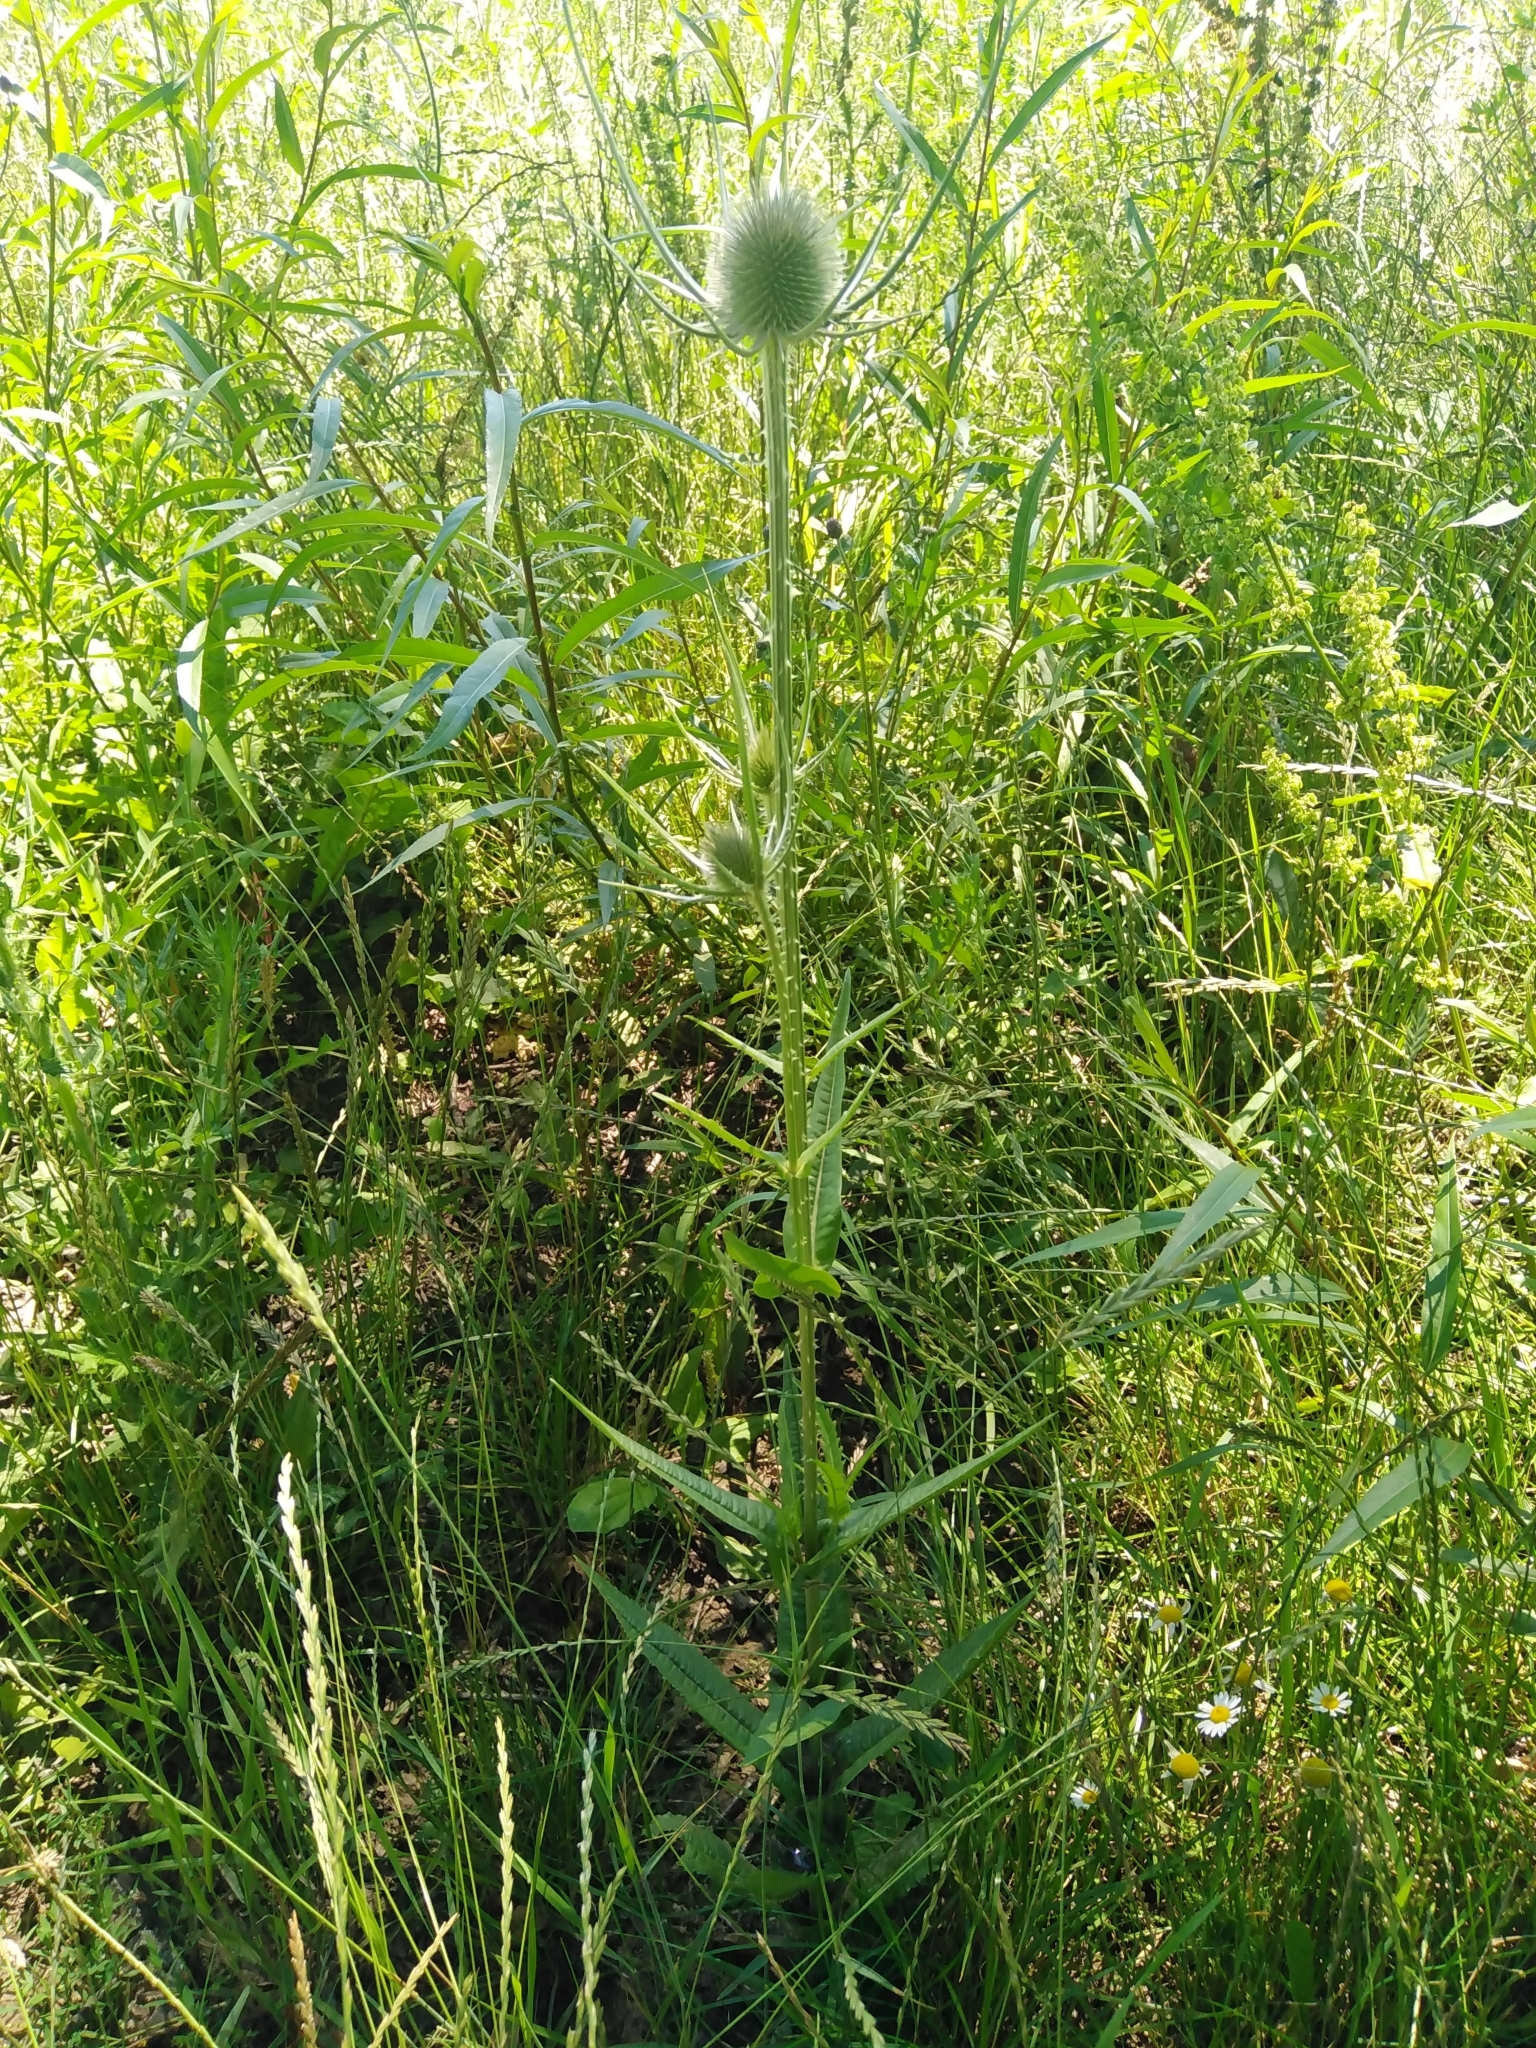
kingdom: Plantae
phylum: Tracheophyta
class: Magnoliopsida
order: Dipsacales
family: Caprifoliaceae
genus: Dipsacus
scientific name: Dipsacus fullonum
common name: Teasel
